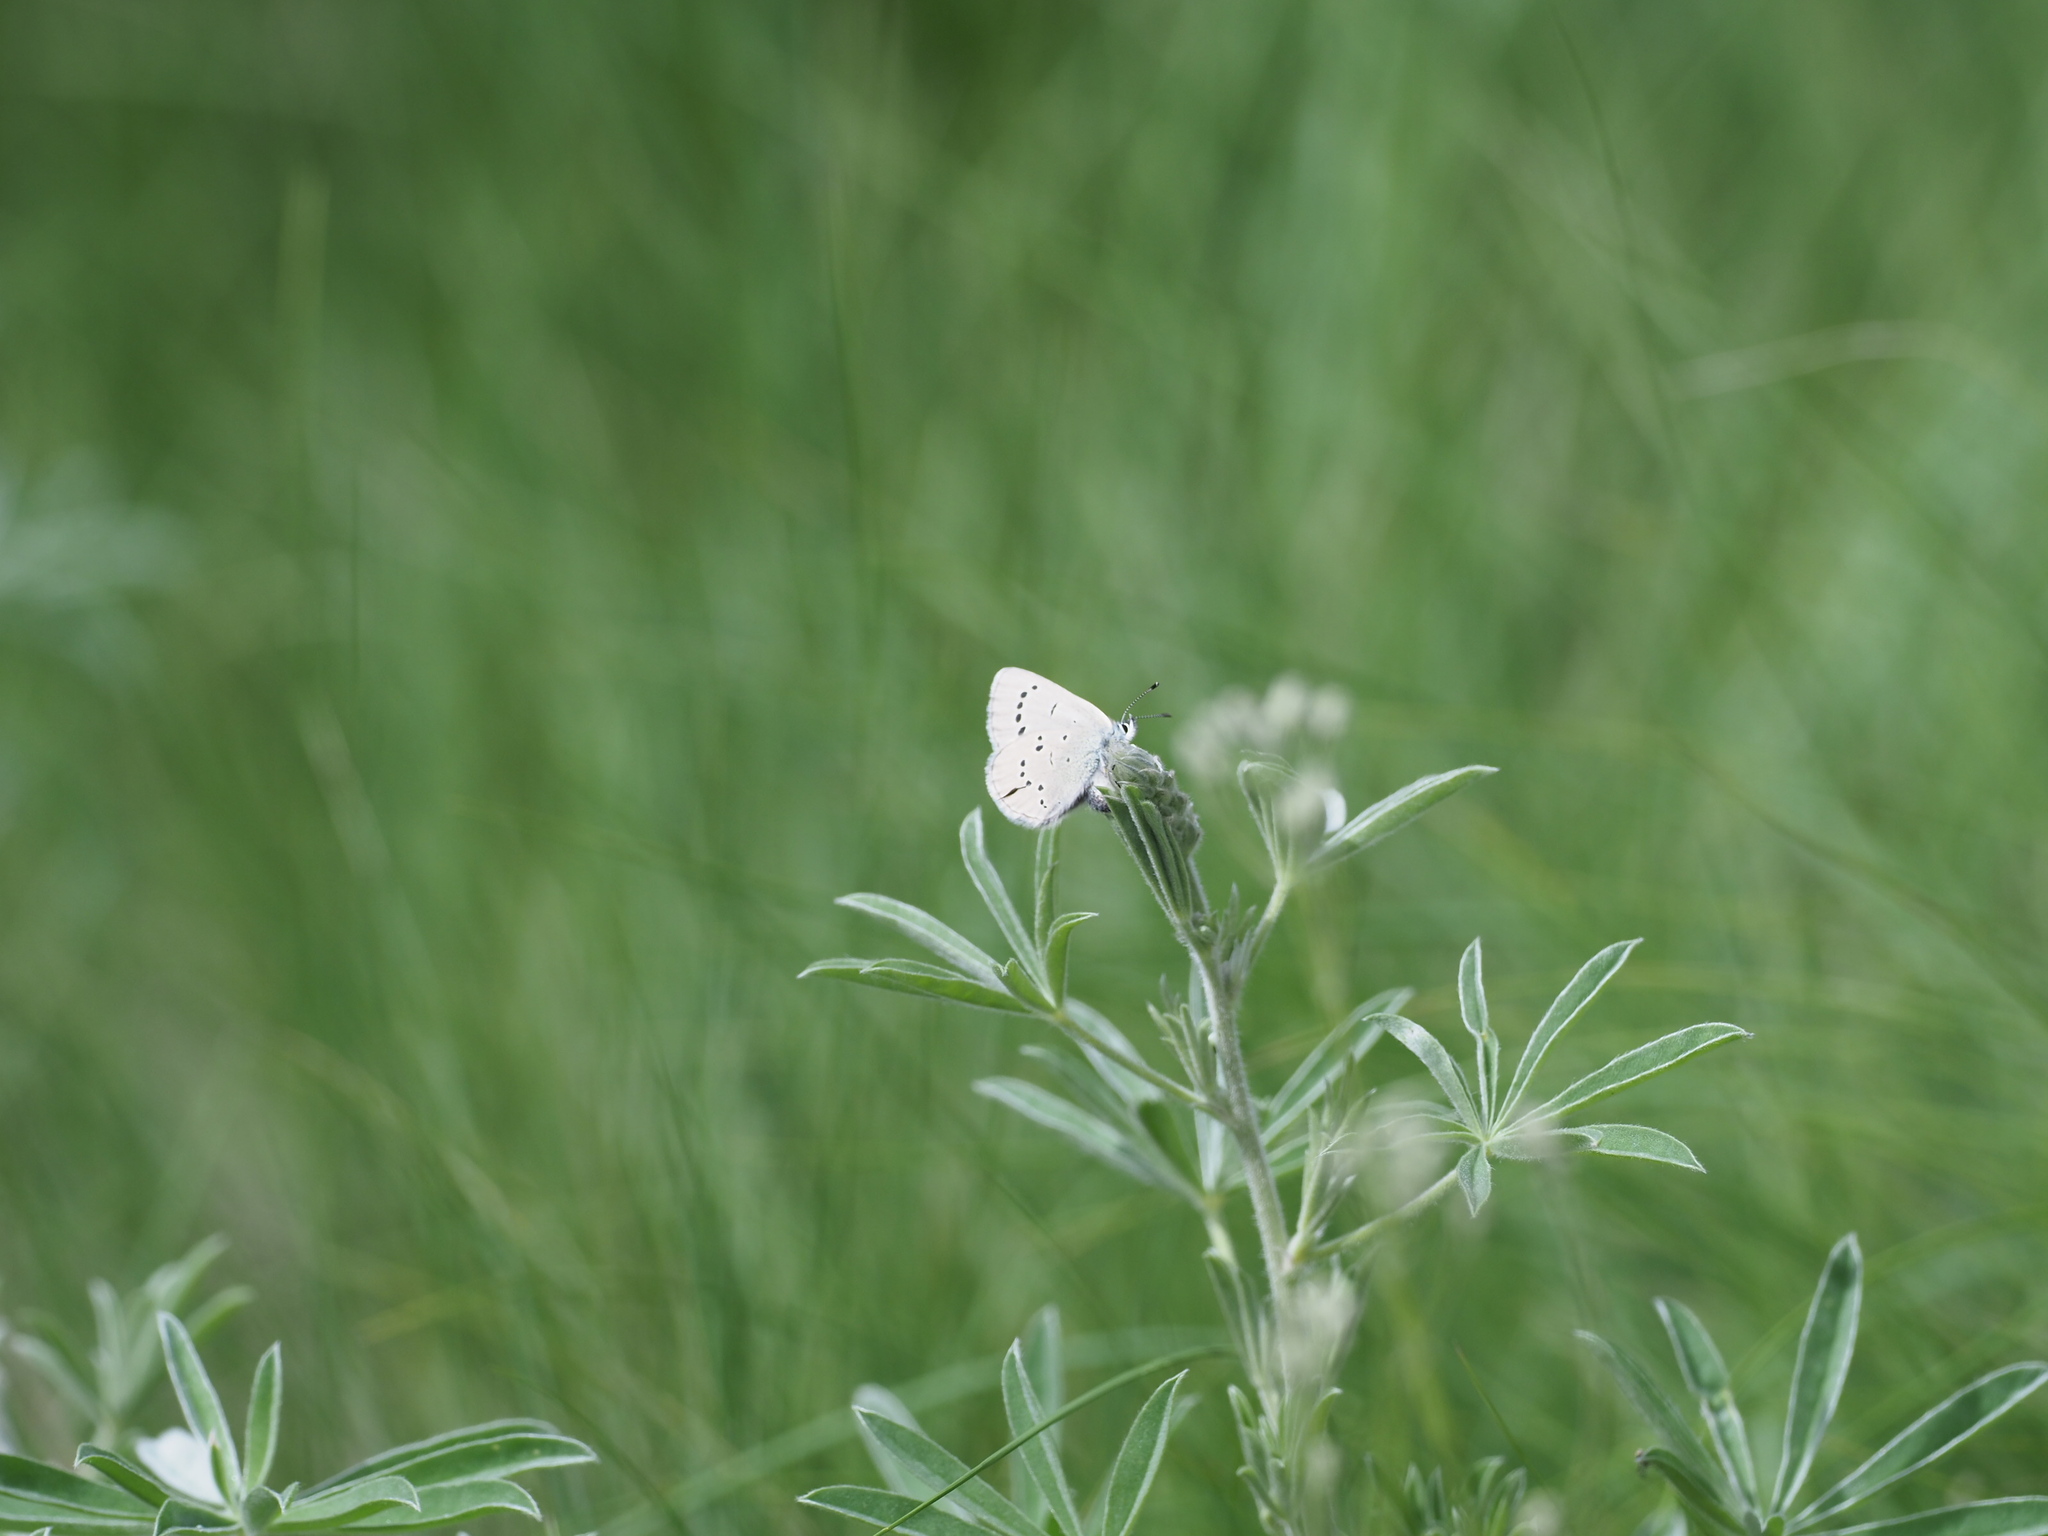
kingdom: Animalia
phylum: Arthropoda
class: Insecta
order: Lepidoptera
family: Lycaenidae
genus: Glaucopsyche
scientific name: Glaucopsyche lygdamus
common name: Silvery blue
